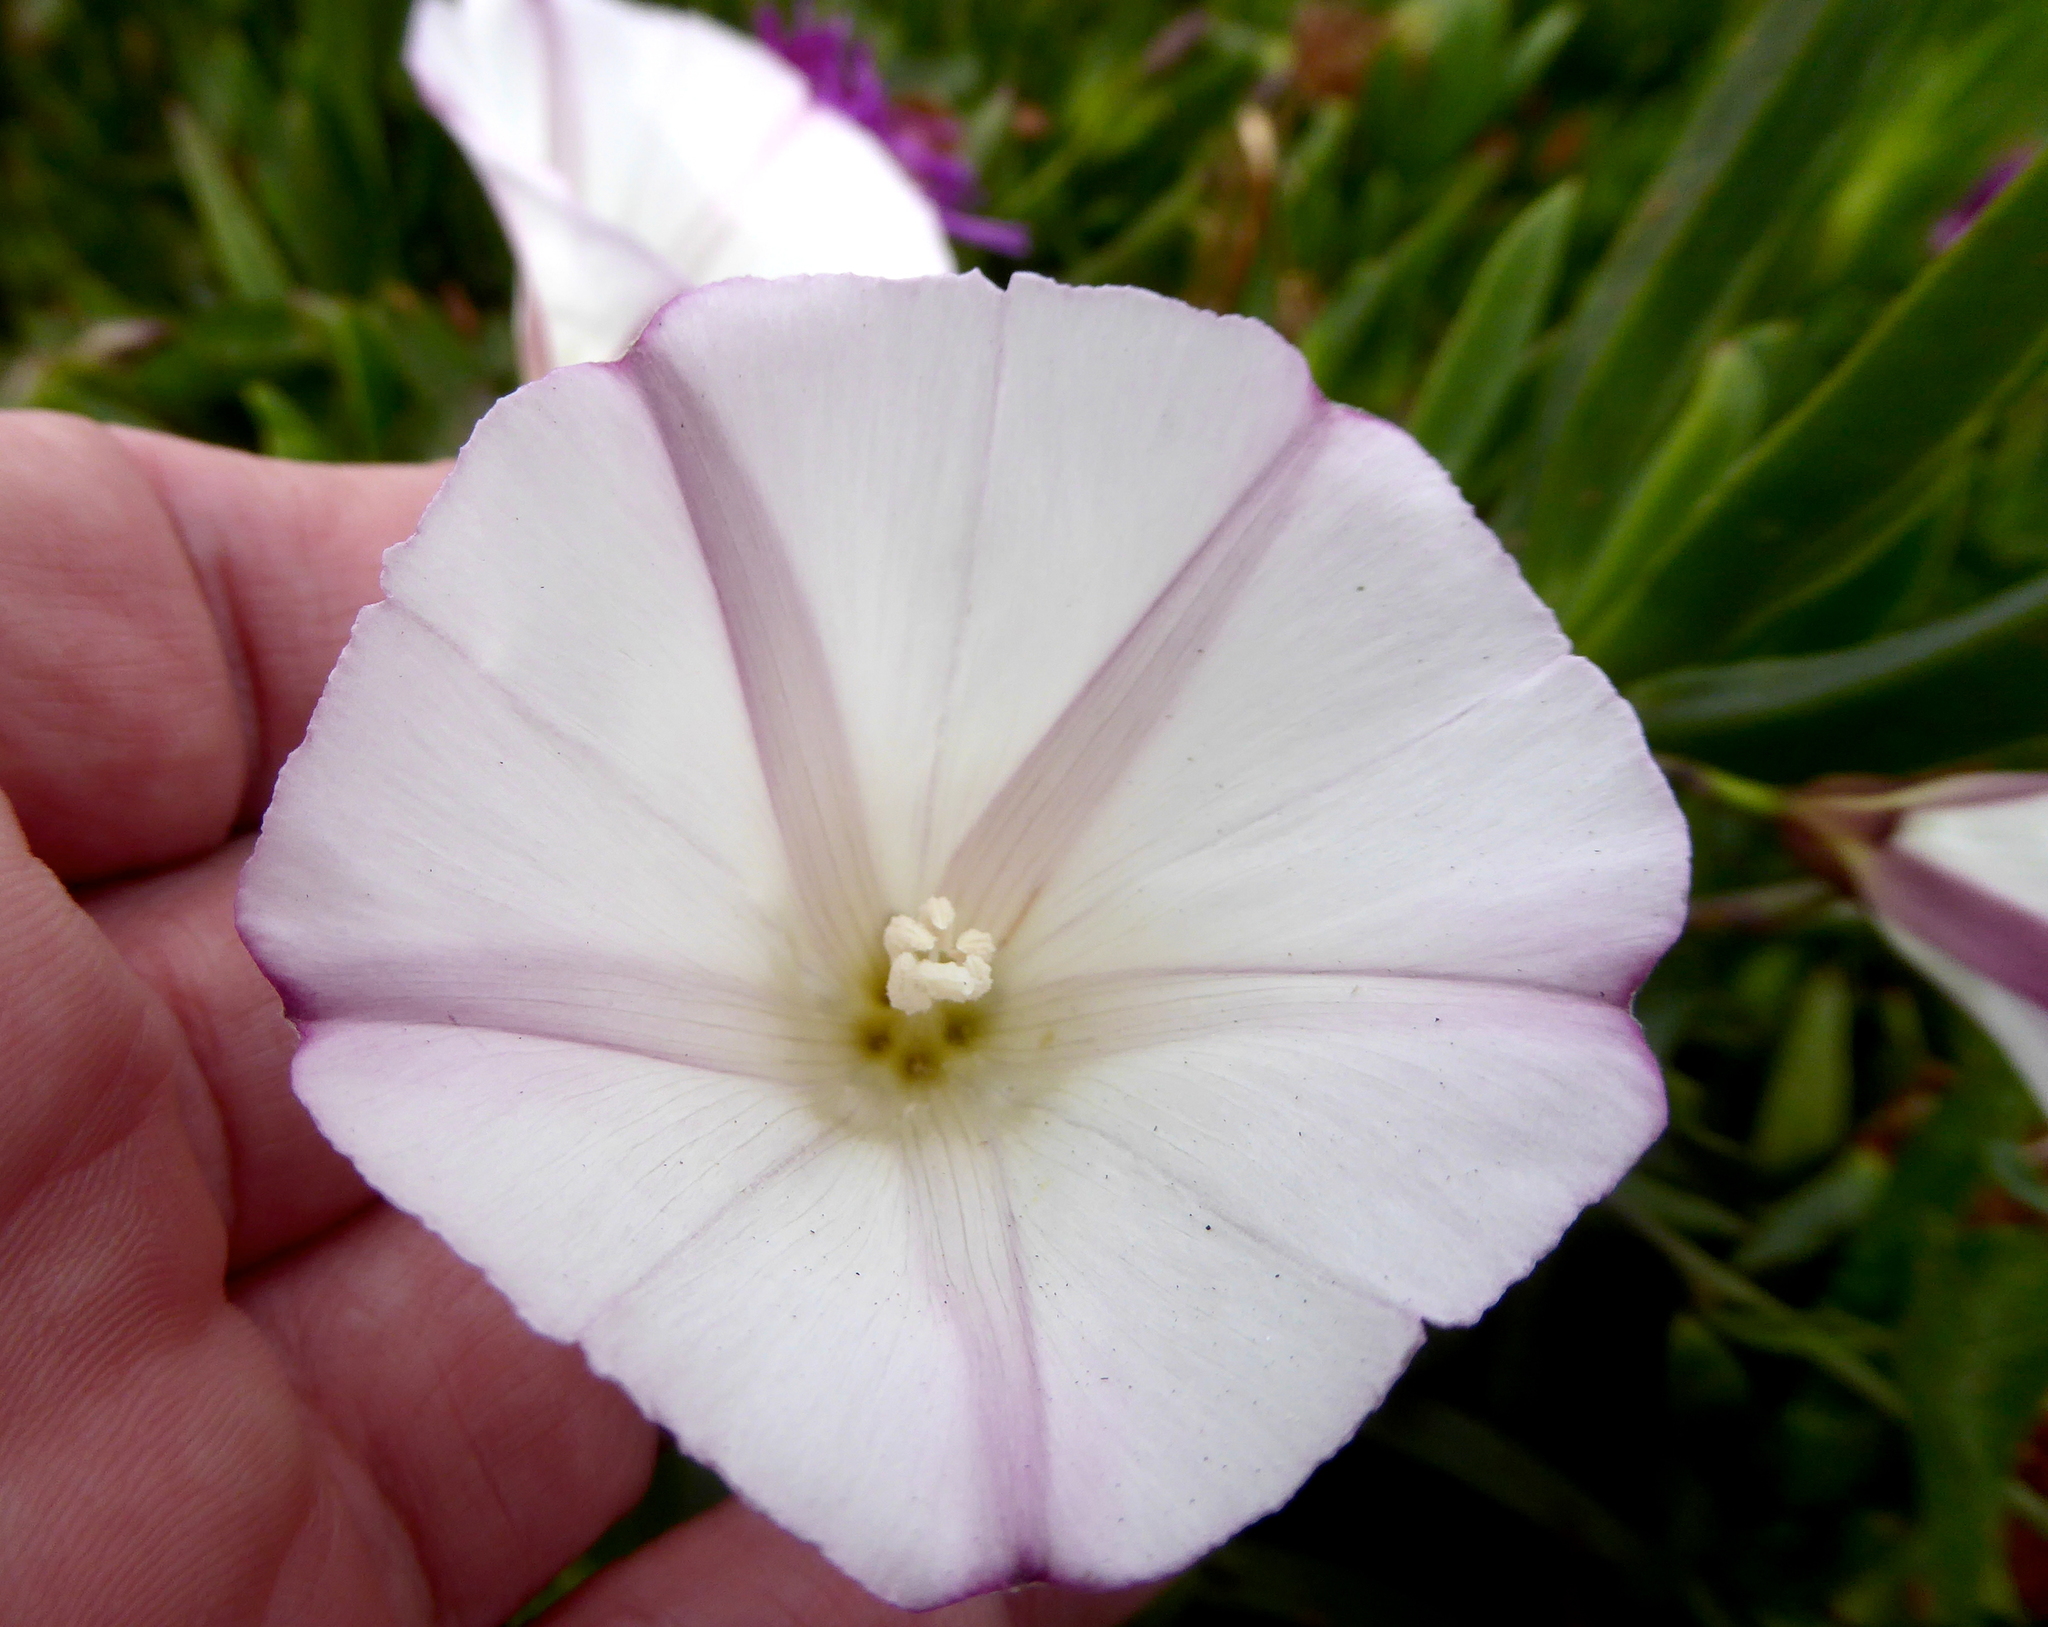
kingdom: Plantae
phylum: Tracheophyta
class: Magnoliopsida
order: Solanales
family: Convolvulaceae
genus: Calystegia
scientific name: Calystegia purpurata
